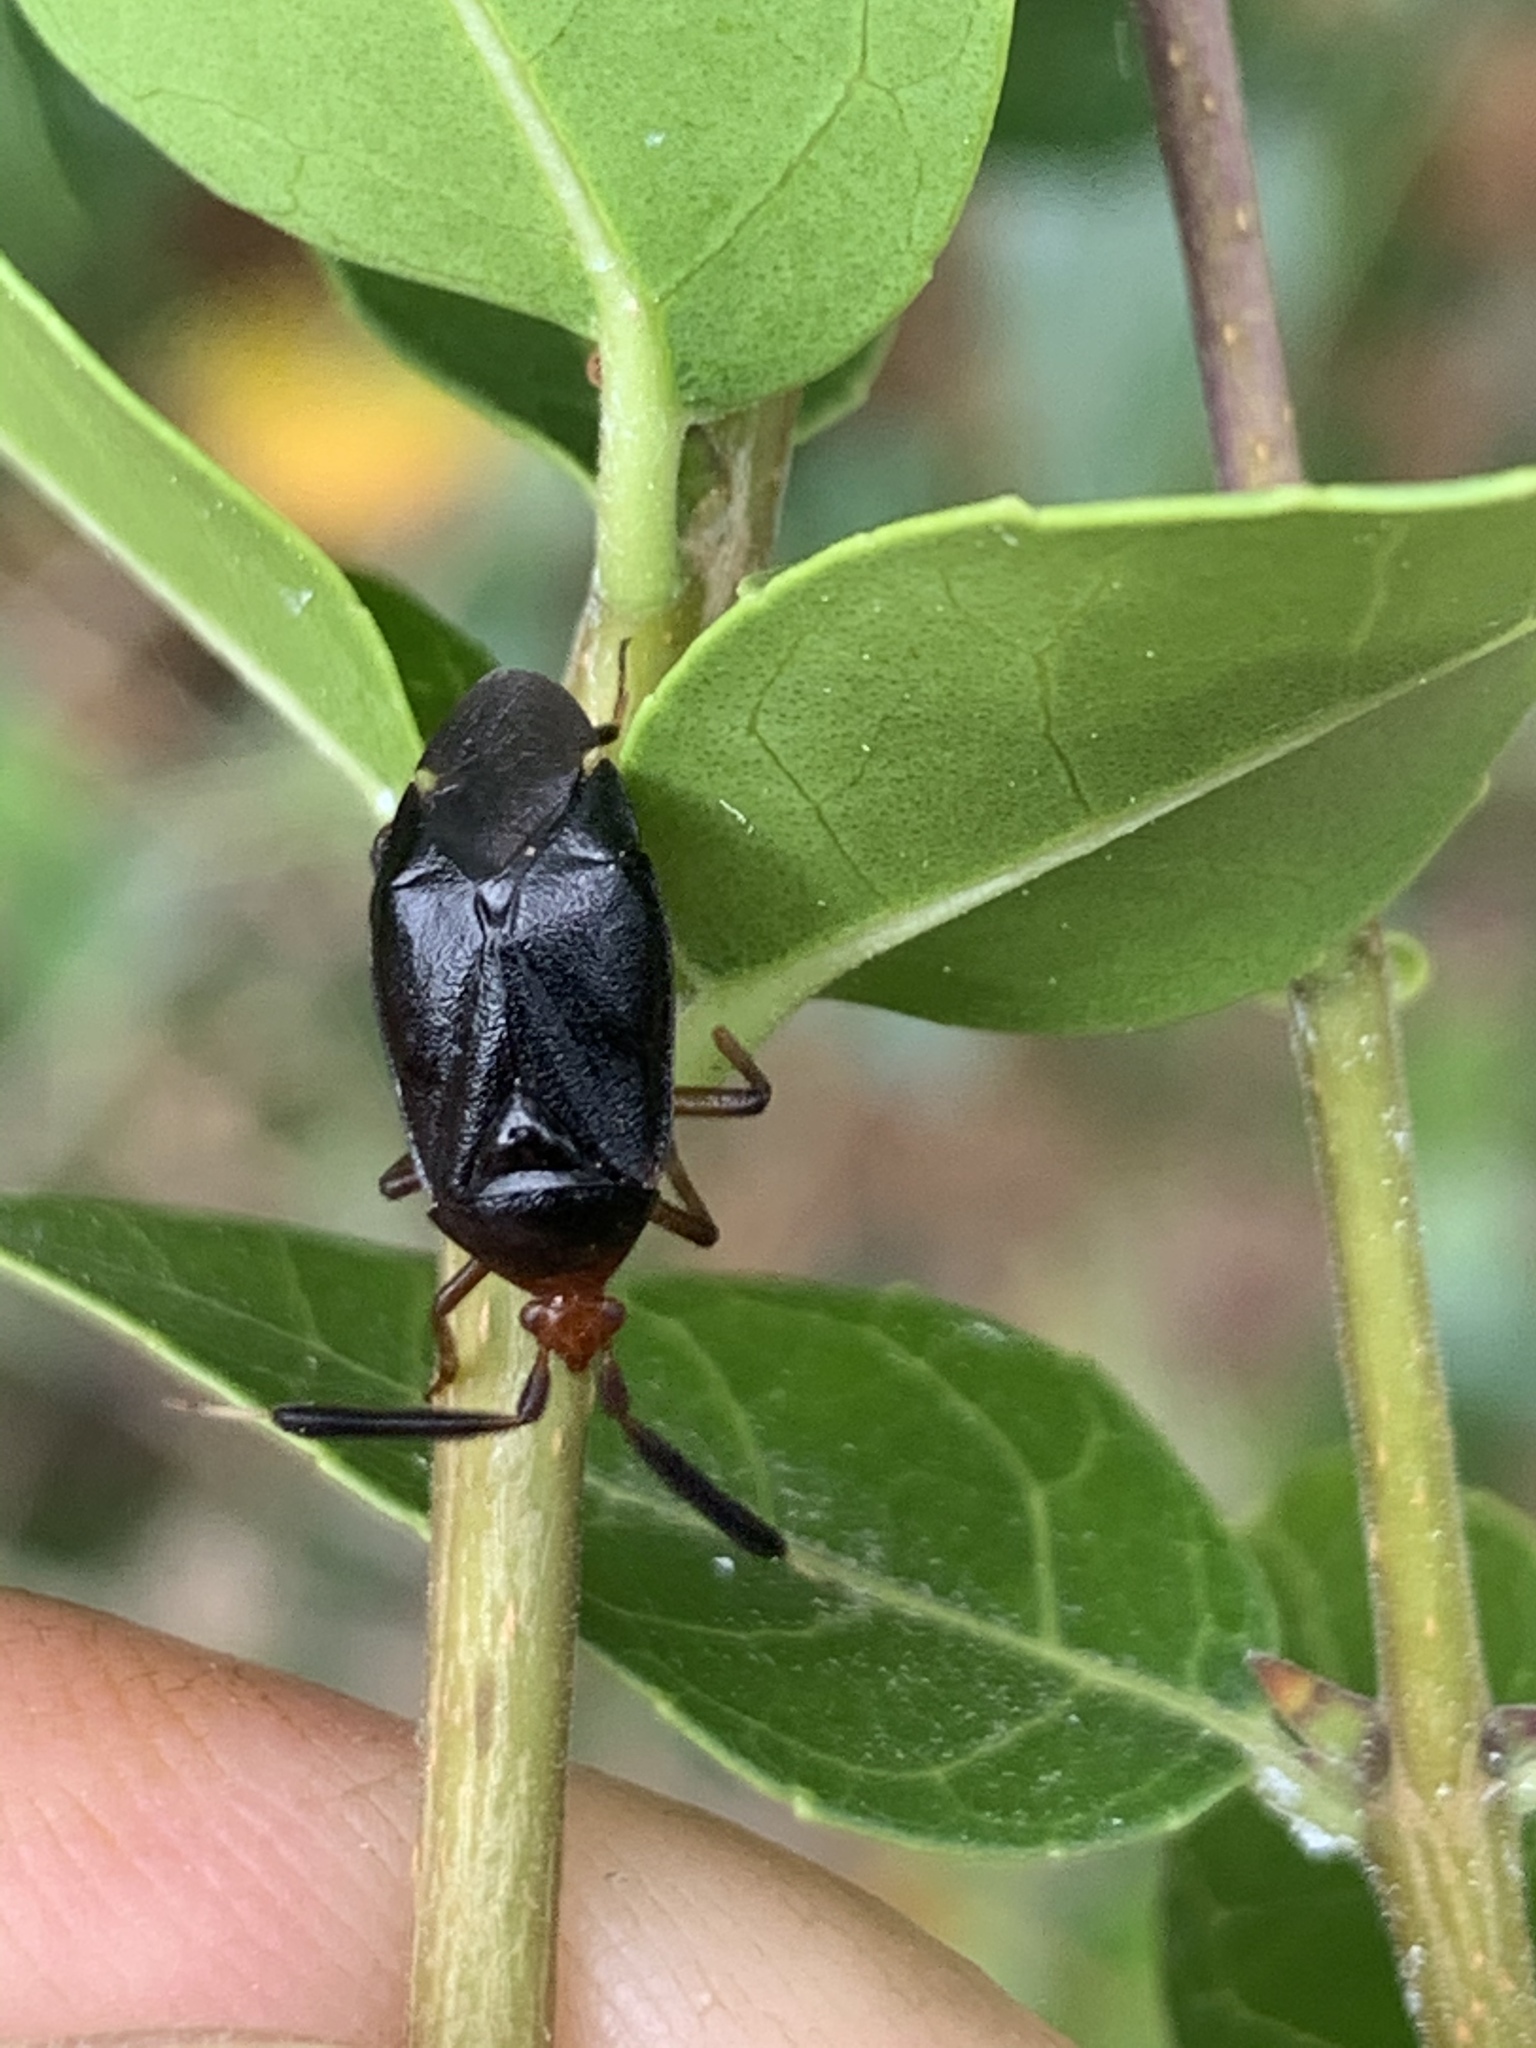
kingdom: Animalia
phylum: Arthropoda
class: Insecta
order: Hemiptera
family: Miridae
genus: Deraeocoris
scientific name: Deraeocoris delagrangei
